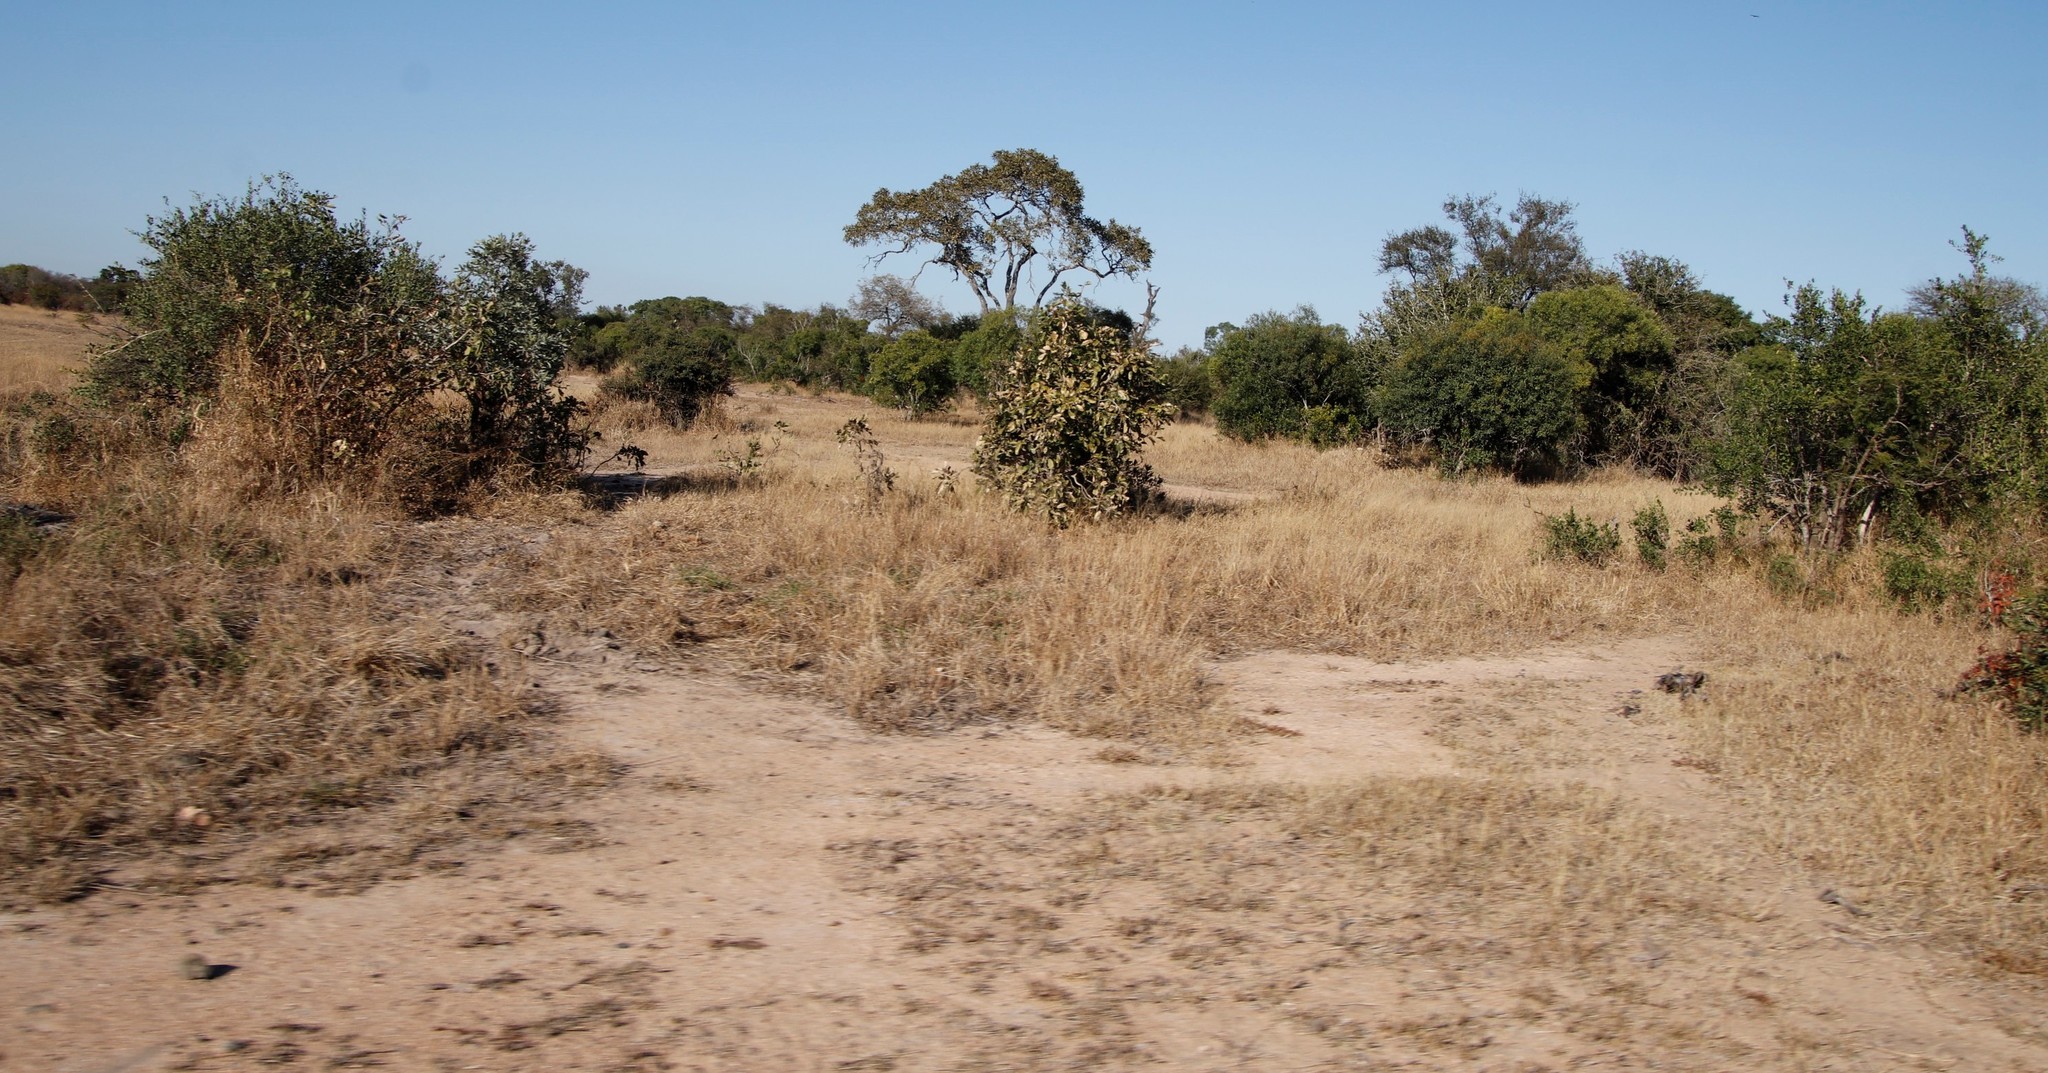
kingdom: Plantae
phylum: Tracheophyta
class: Magnoliopsida
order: Fabales
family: Fabaceae
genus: Philenoptera
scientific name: Philenoptera violacea
